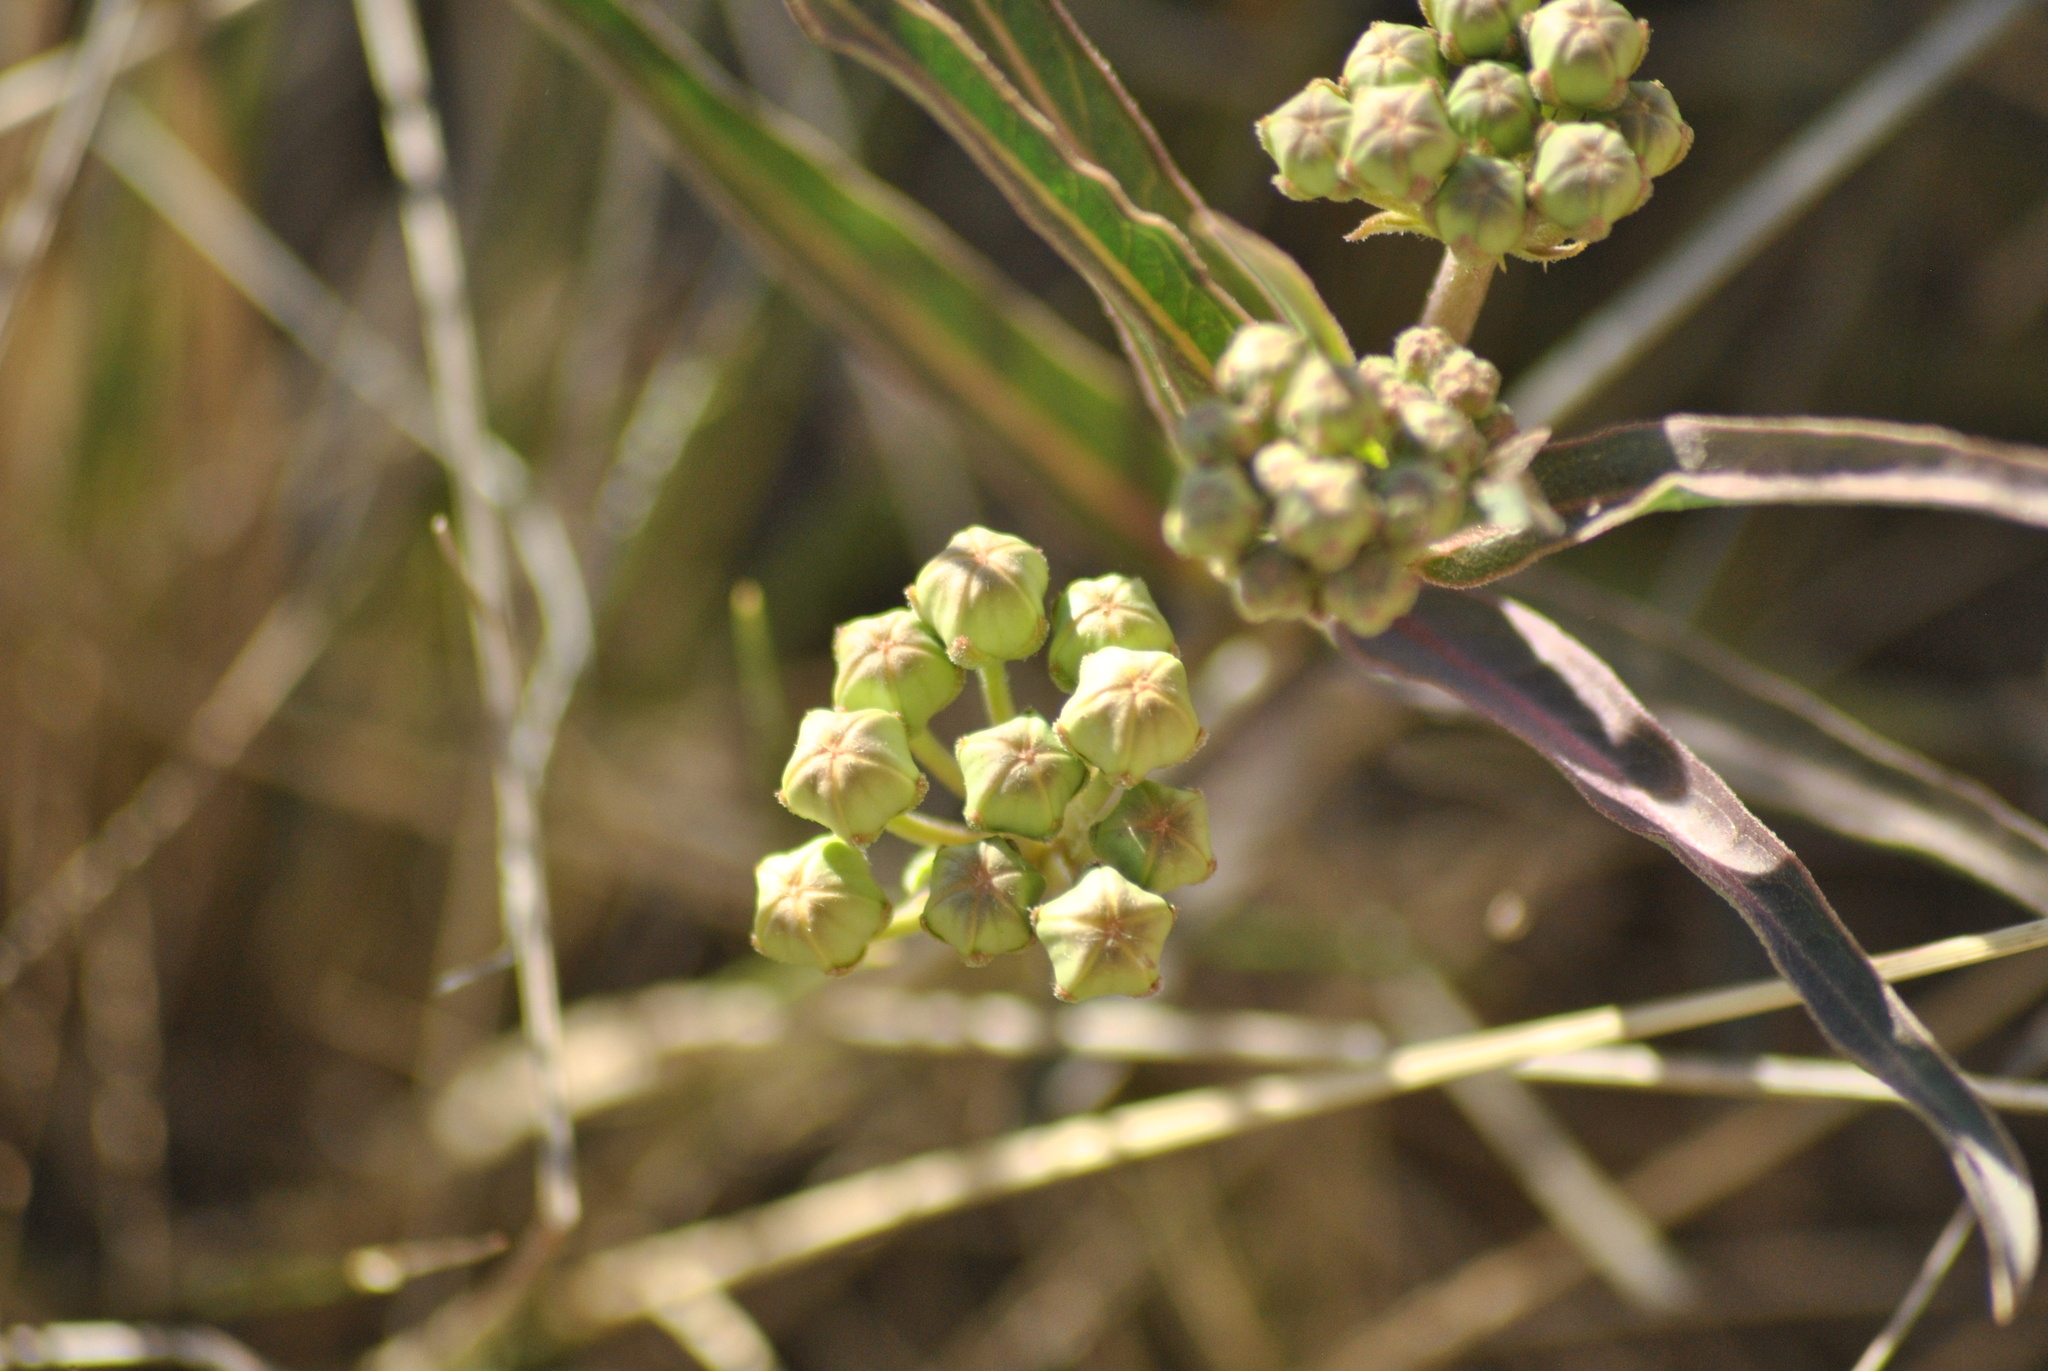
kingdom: Plantae
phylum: Tracheophyta
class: Magnoliopsida
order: Gentianales
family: Apocynaceae
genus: Asclepias
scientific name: Asclepias mellodora
